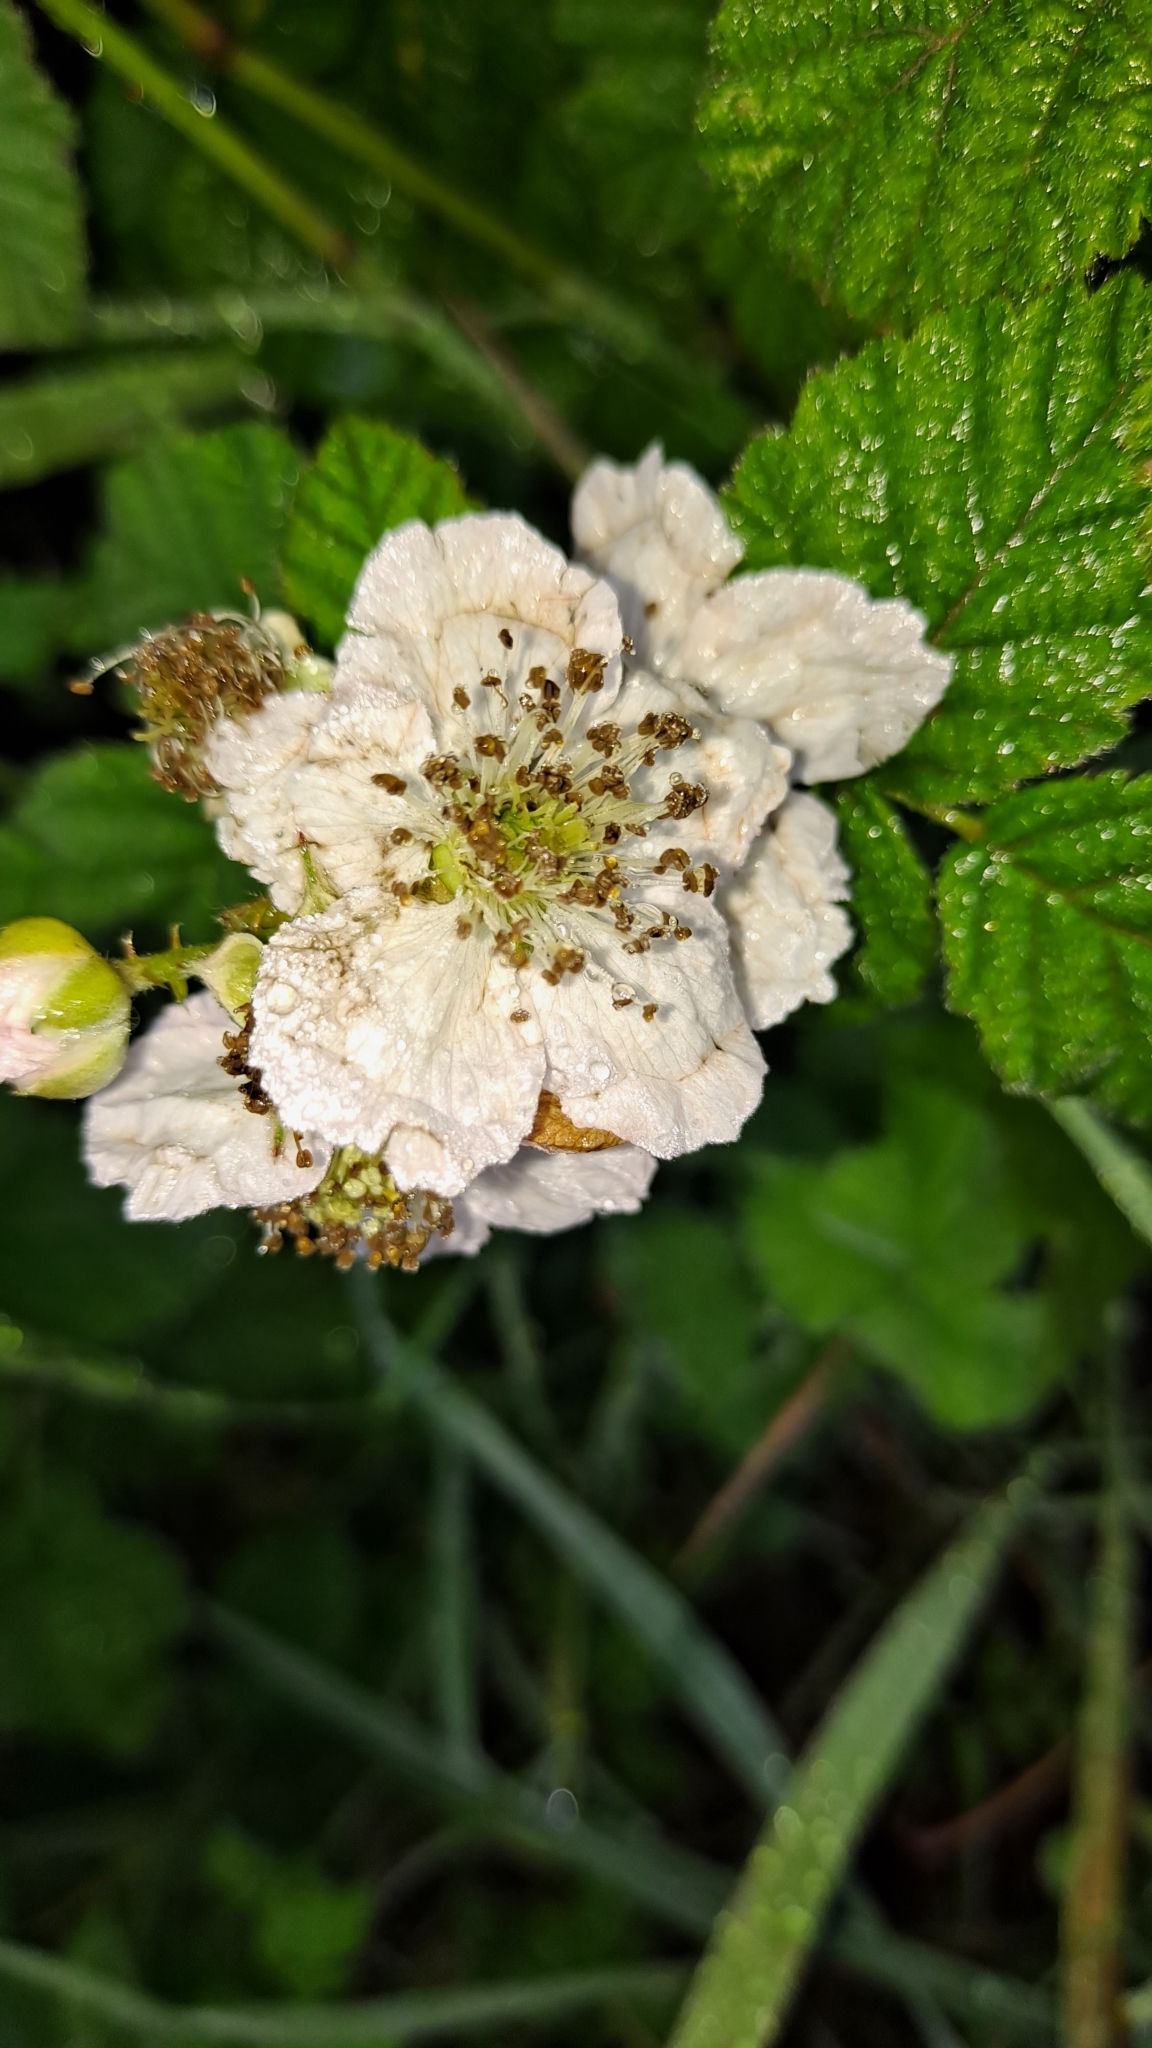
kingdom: Plantae
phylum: Tracheophyta
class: Magnoliopsida
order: Rosales
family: Rosaceae
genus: Rubus
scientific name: Rubus ulmifolius
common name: Elmleaf blackberry
